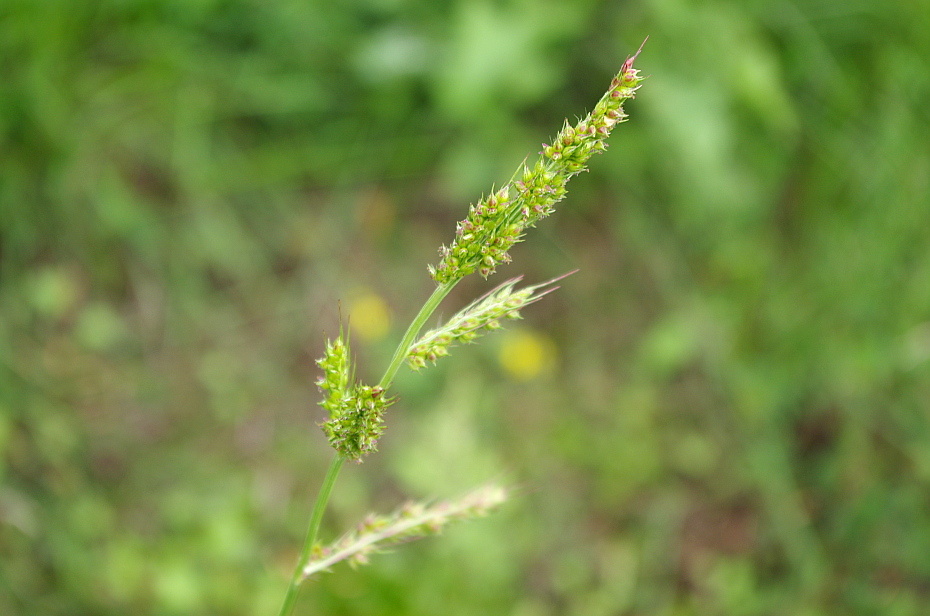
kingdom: Plantae
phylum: Tracheophyta
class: Liliopsida
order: Poales
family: Poaceae
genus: Echinochloa
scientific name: Echinochloa crus-galli
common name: Cockspur
